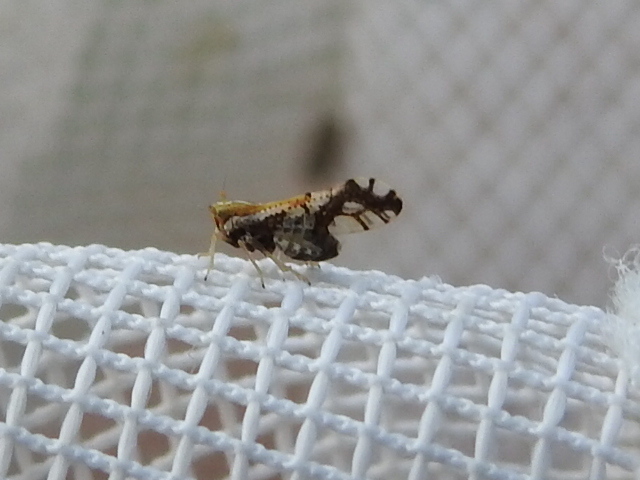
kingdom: Animalia
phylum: Arthropoda
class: Insecta
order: Hemiptera
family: Delphacidae
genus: Liburniella
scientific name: Liburniella ornata
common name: Ornate planthopper
